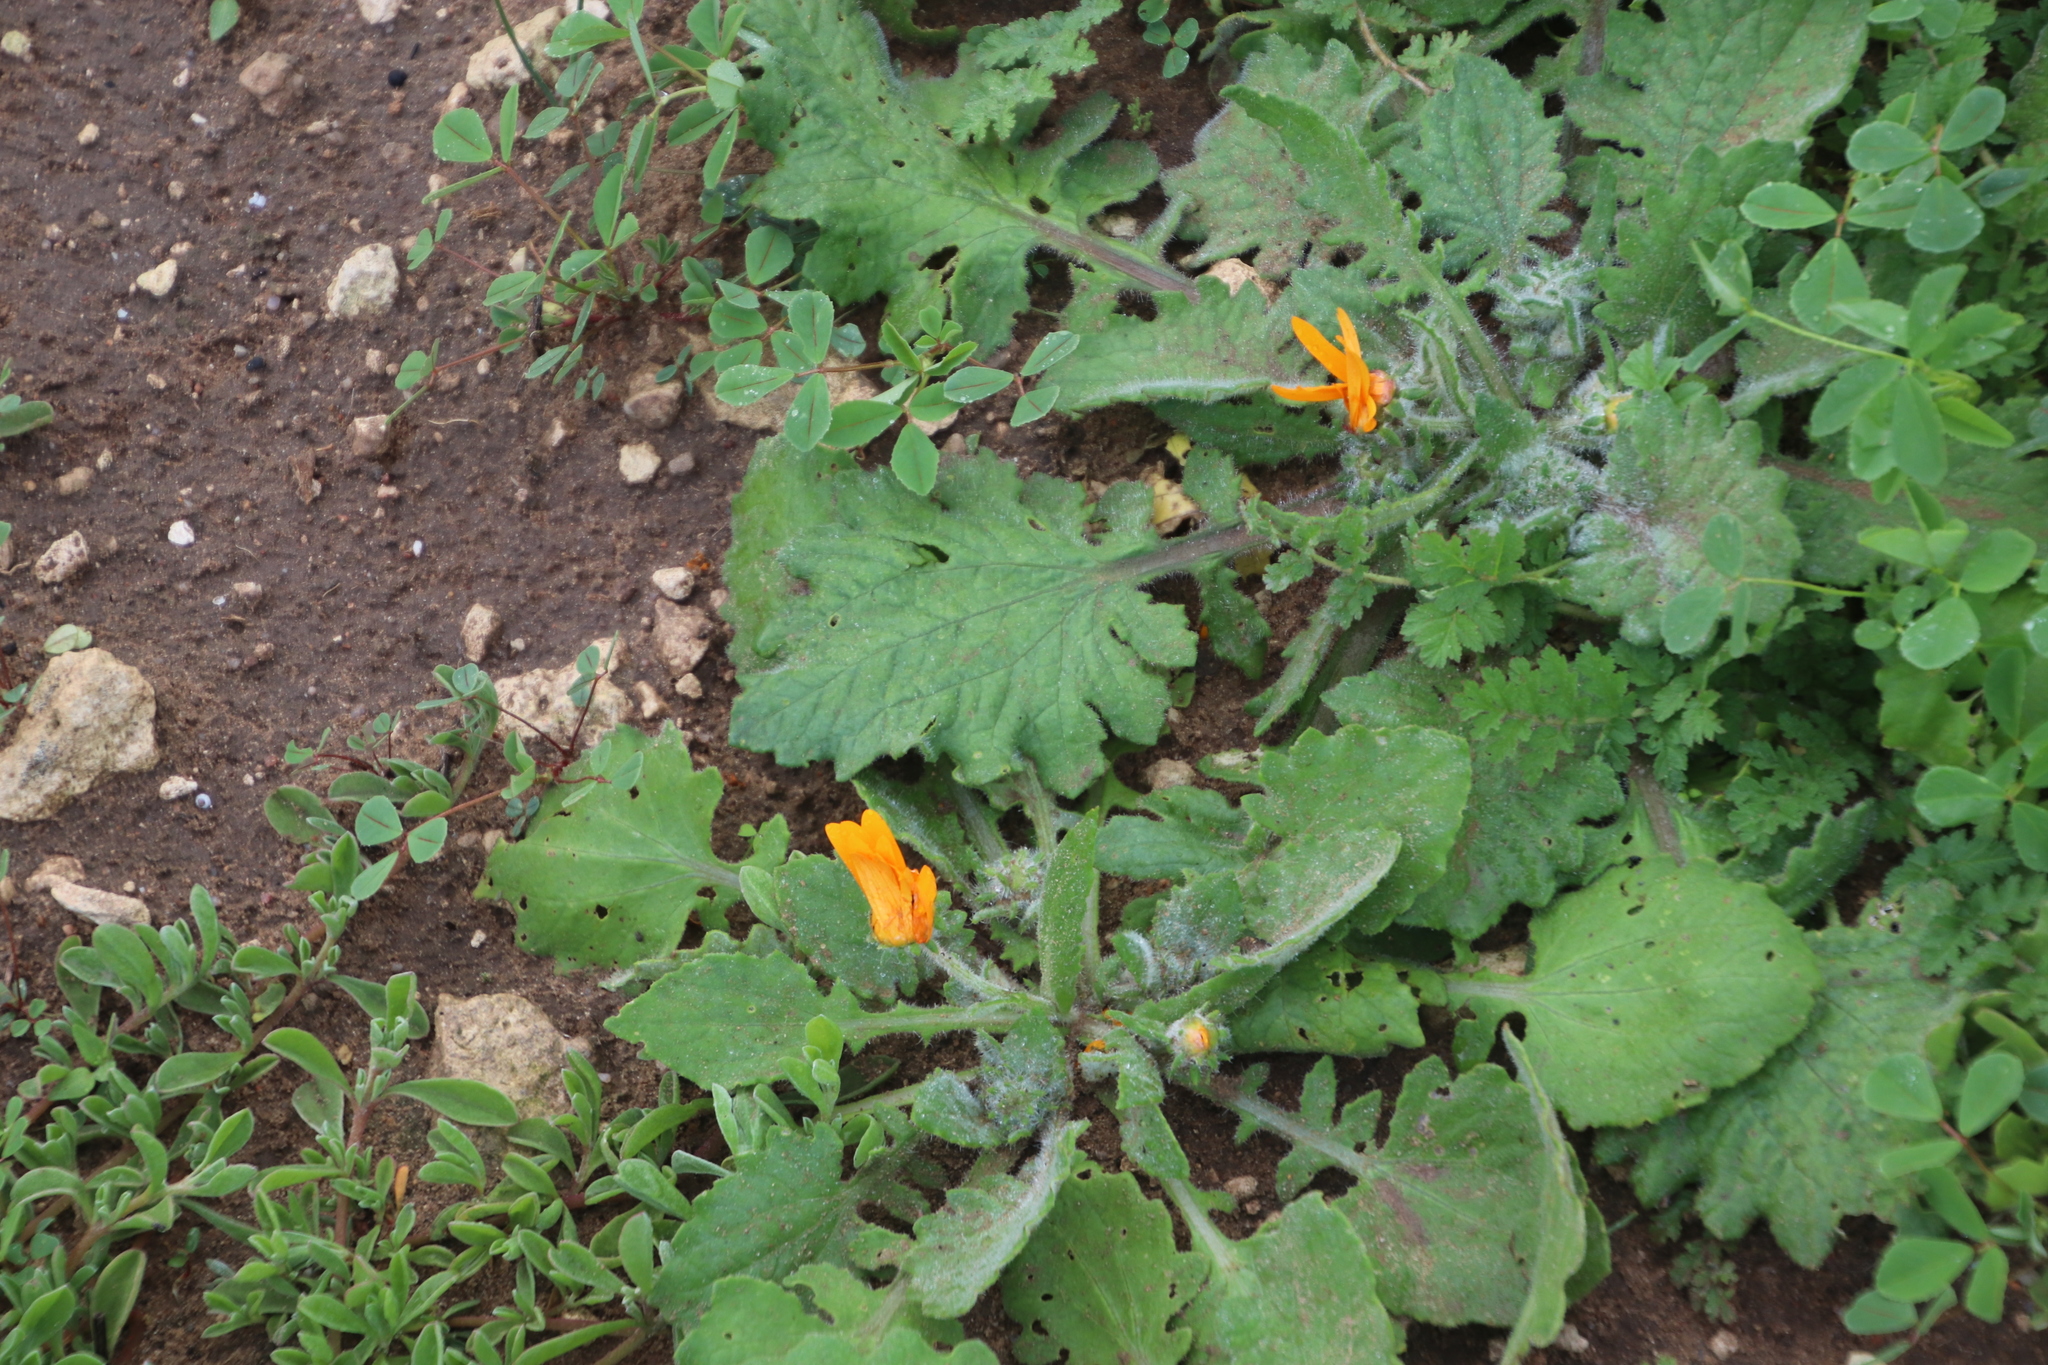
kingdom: Plantae
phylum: Tracheophyta
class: Magnoliopsida
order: Asterales
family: Asteraceae
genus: Arctotis
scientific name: Arctotis hirsuta
